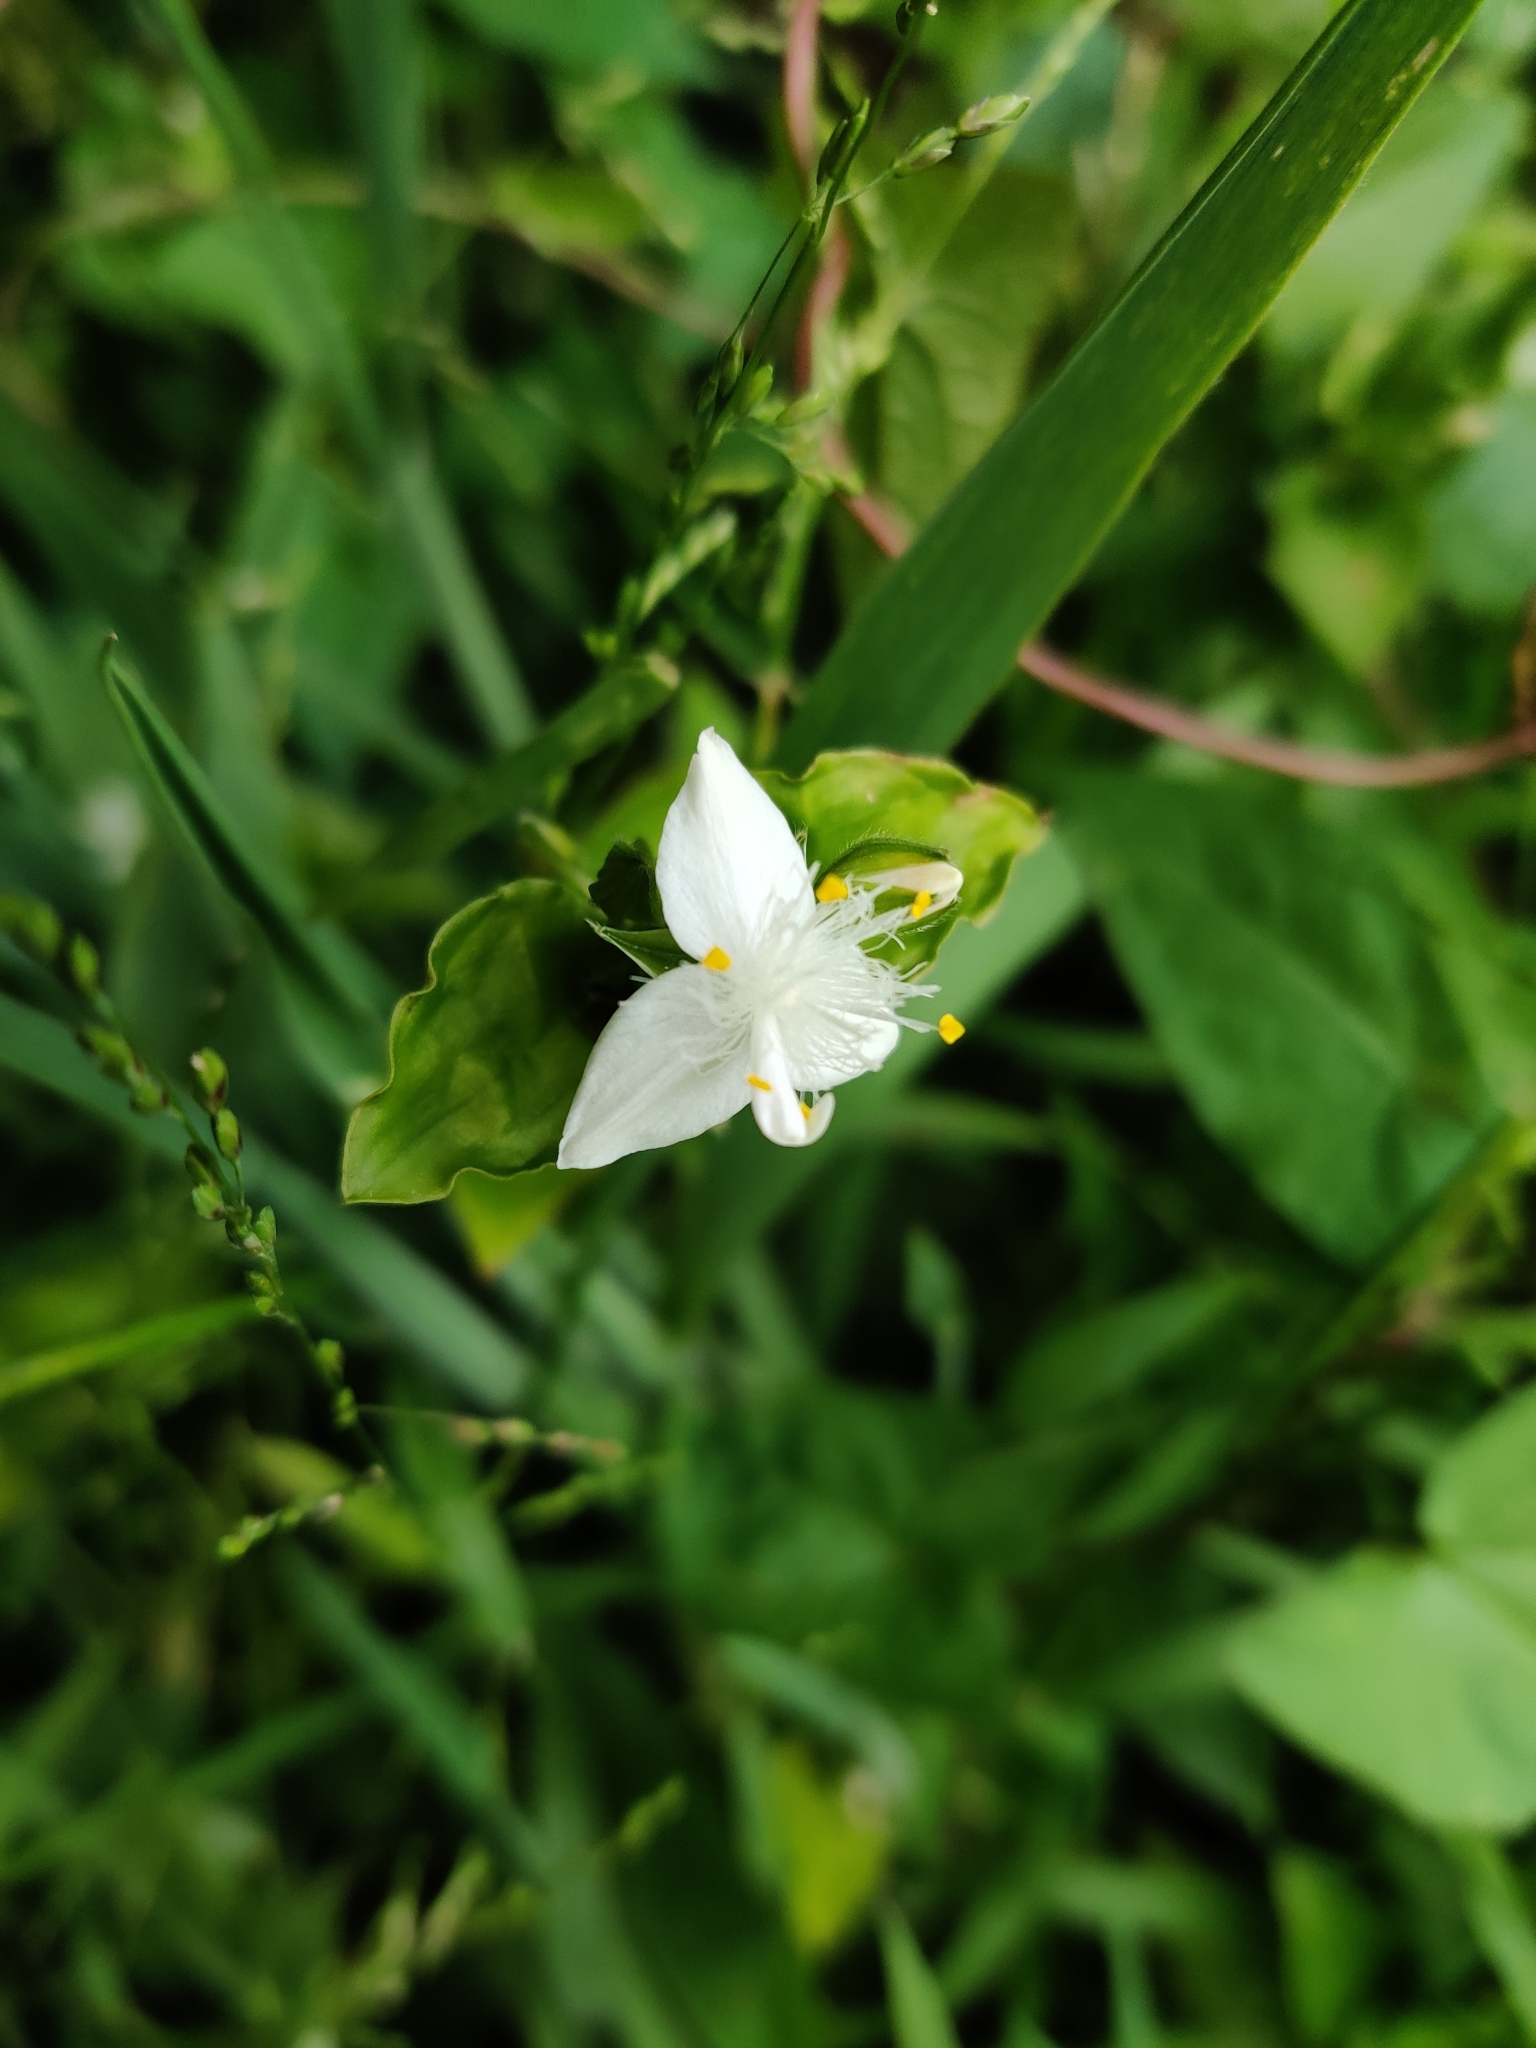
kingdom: Plantae
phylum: Tracheophyta
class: Liliopsida
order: Commelinales
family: Commelinaceae
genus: Tradescantia
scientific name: Tradescantia fluminensis
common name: Wandering-jew
